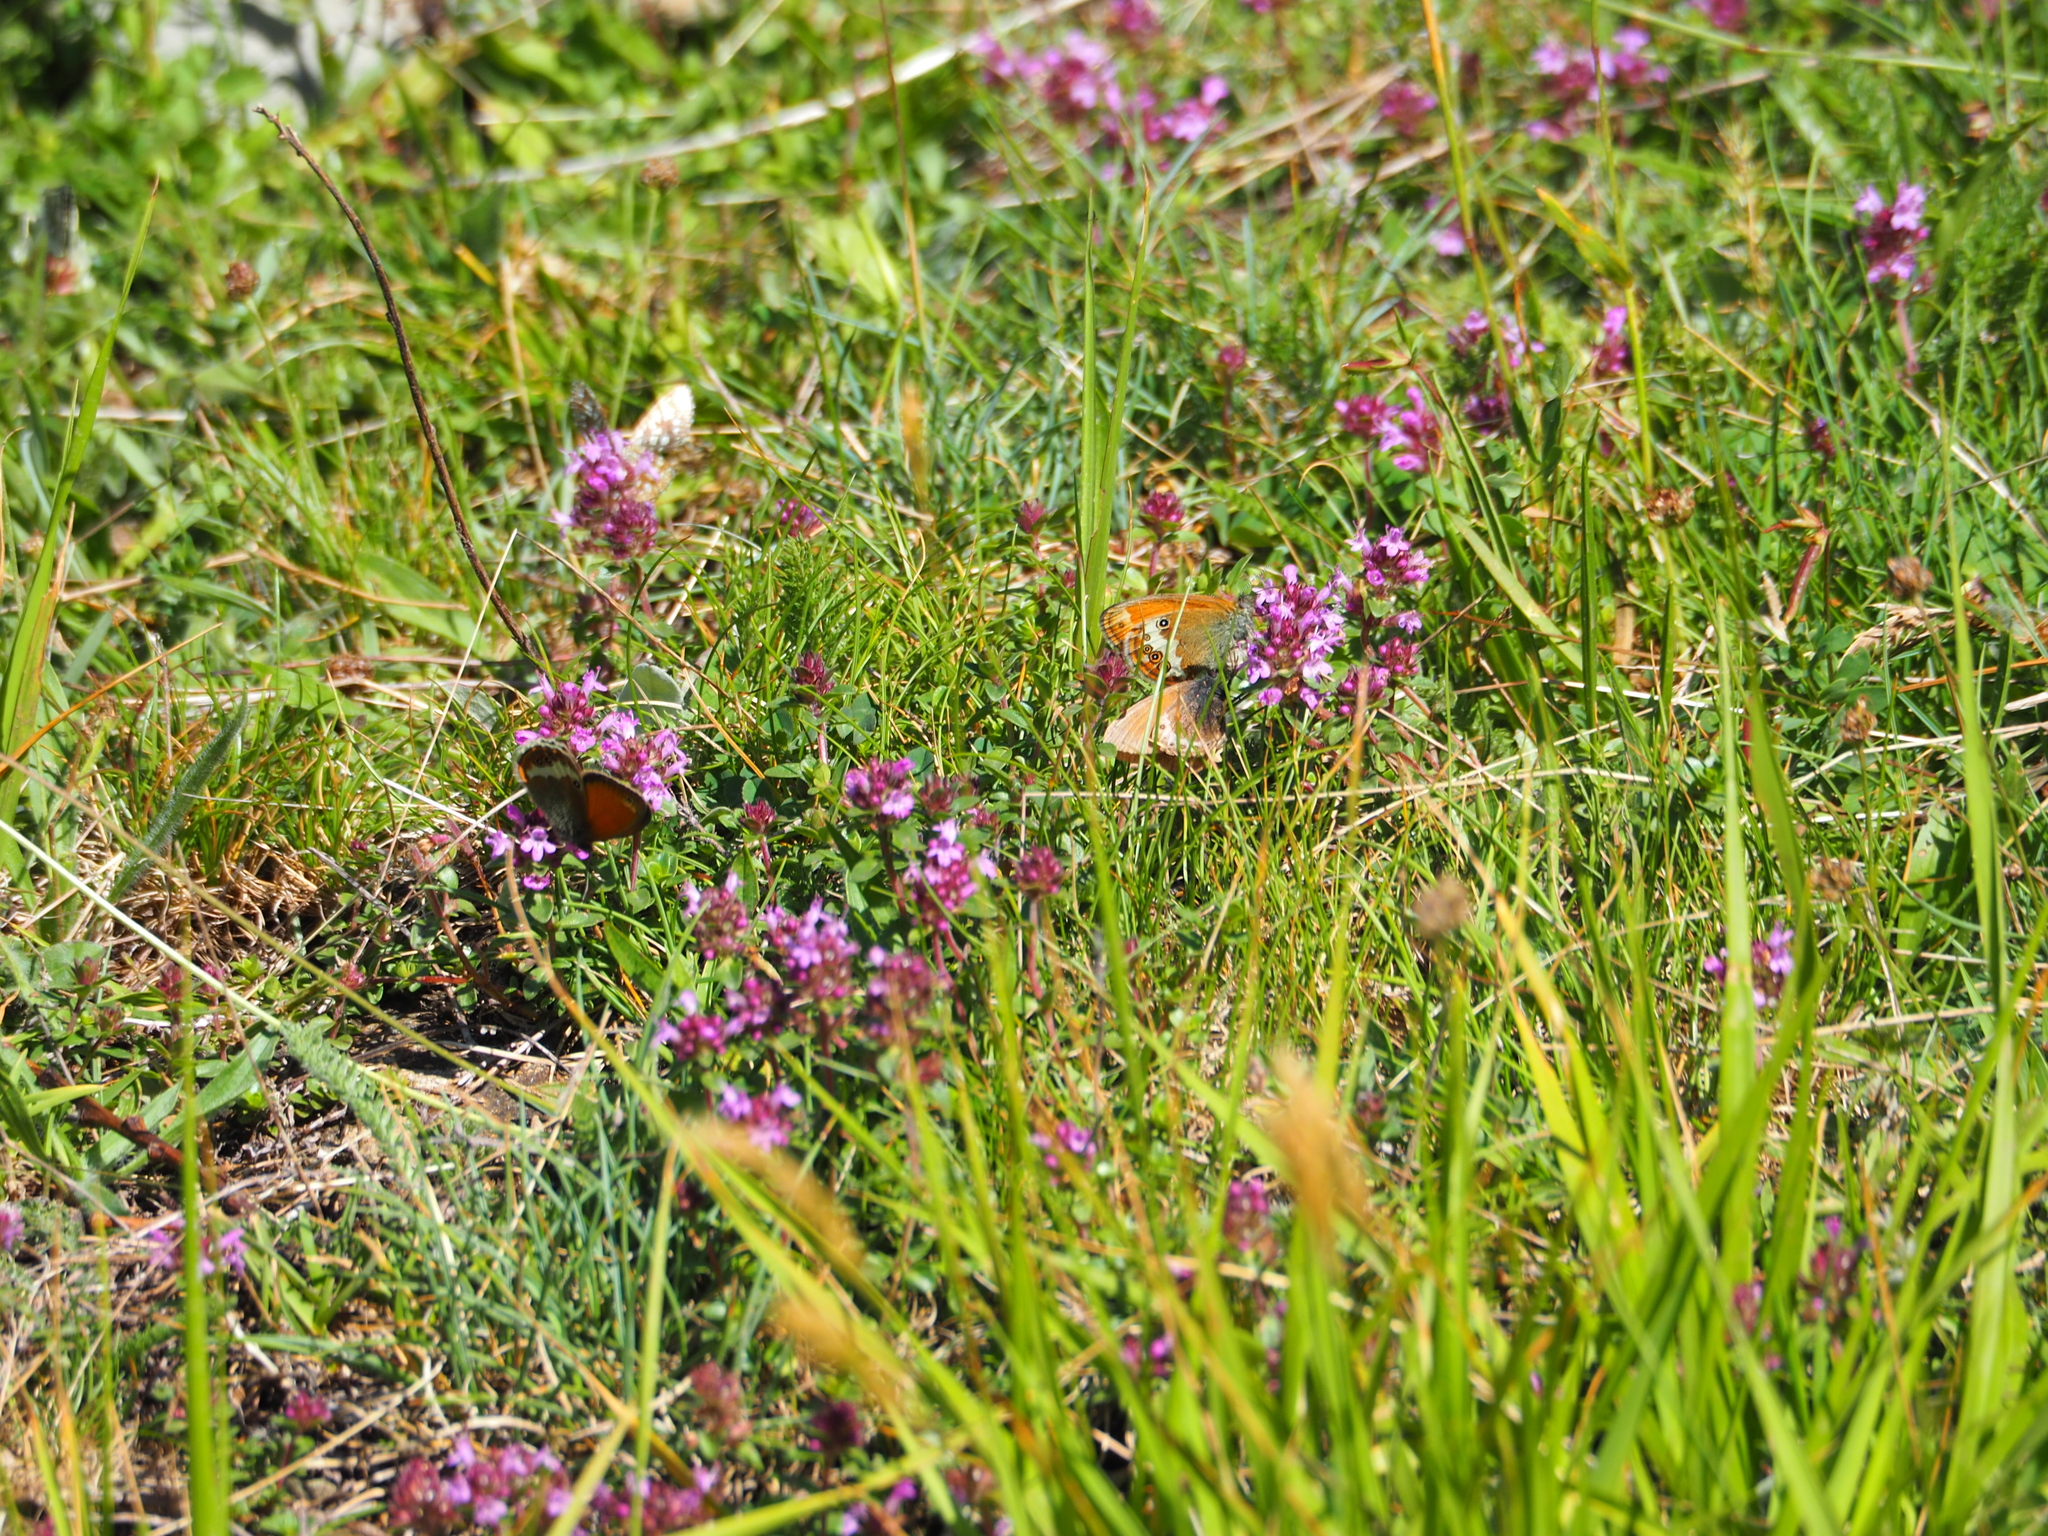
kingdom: Animalia
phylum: Arthropoda
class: Insecta
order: Lepidoptera
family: Nymphalidae
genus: Coenonympha
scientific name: Coenonympha
